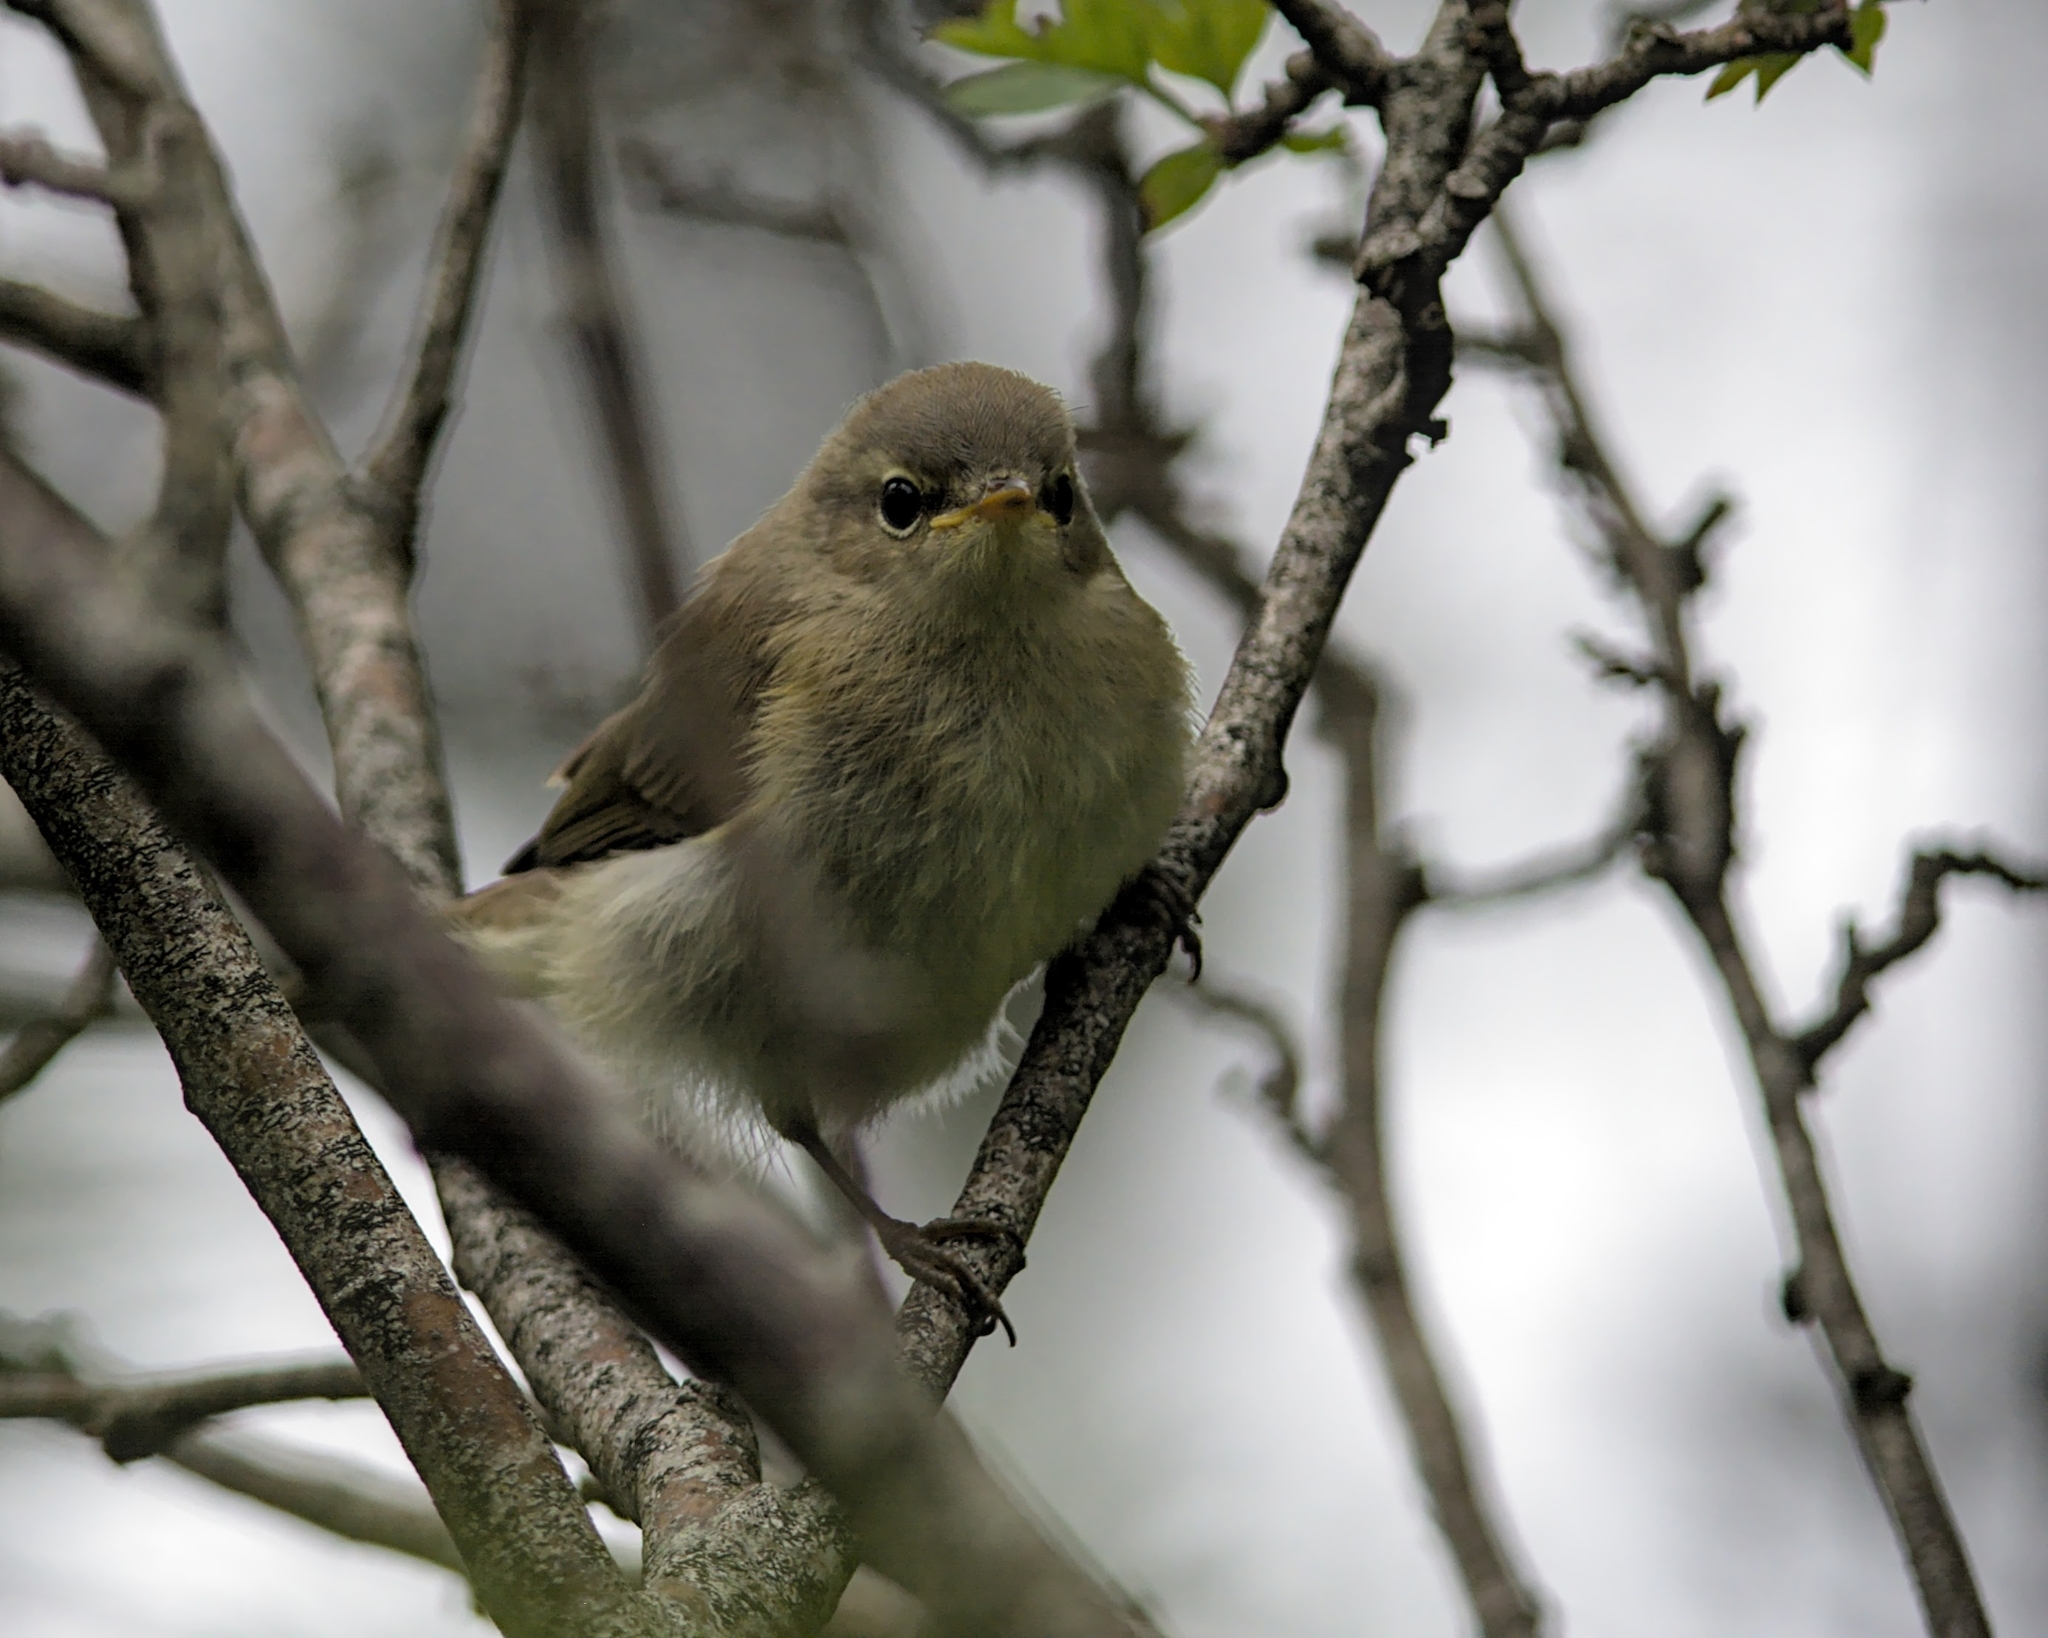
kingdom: Animalia
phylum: Chordata
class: Aves
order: Passeriformes
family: Phylloscopidae
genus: Phylloscopus
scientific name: Phylloscopus collybita
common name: Common chiffchaff
